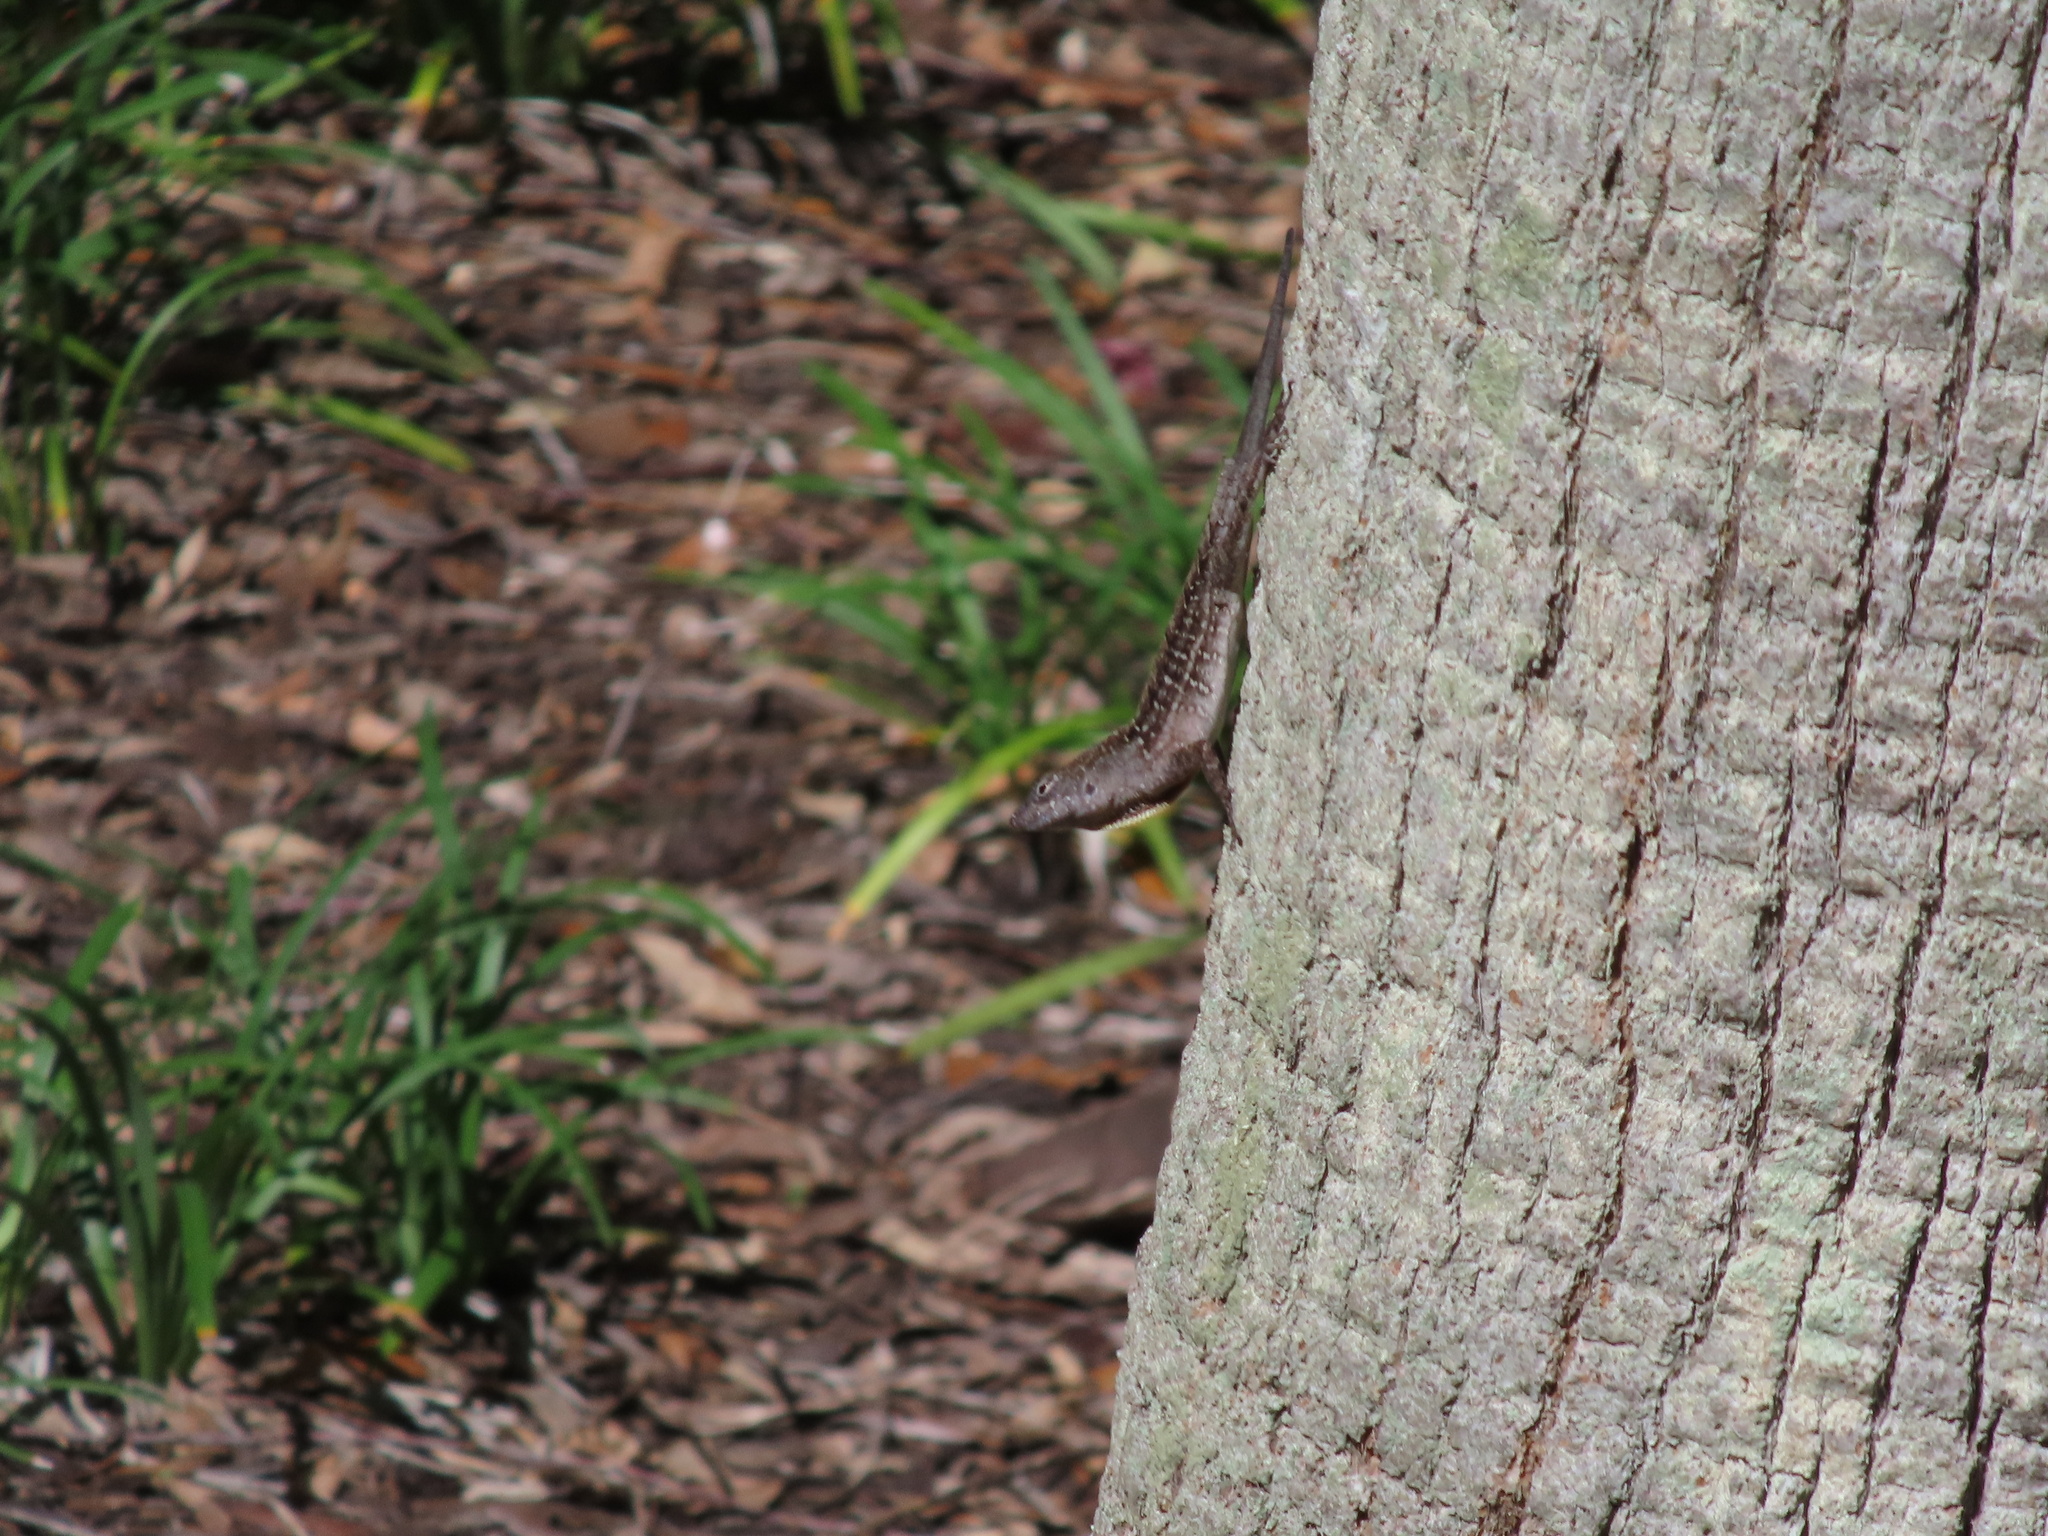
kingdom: Animalia
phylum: Chordata
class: Squamata
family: Dactyloidae
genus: Anolis
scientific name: Anolis sagrei
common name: Brown anole
